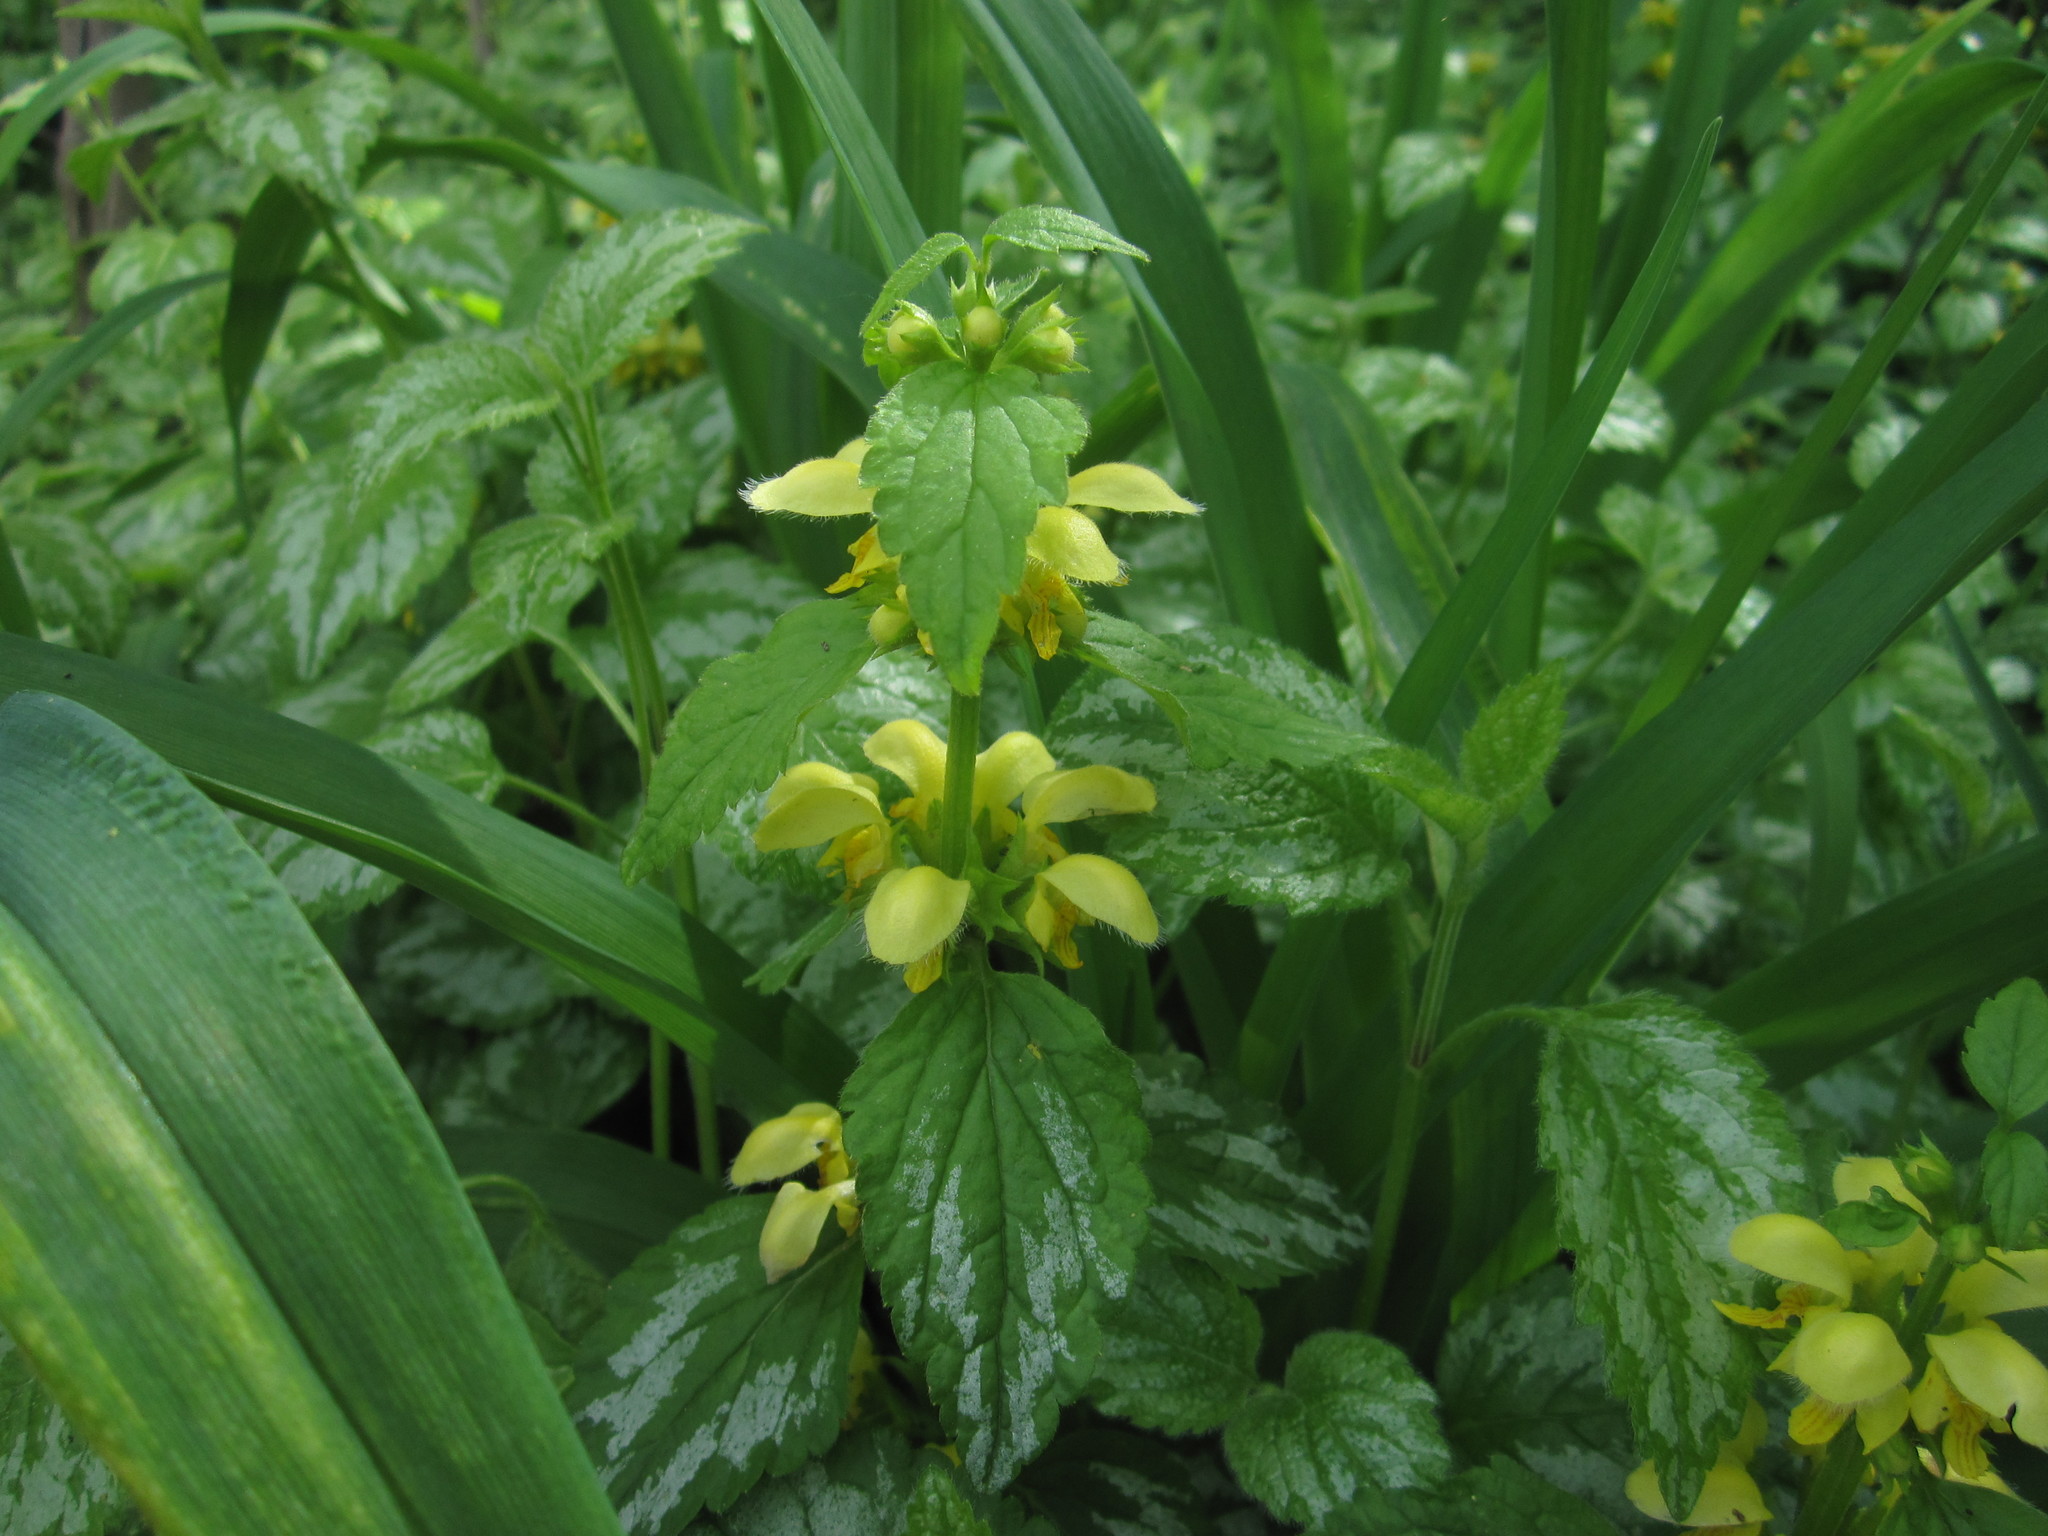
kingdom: Plantae
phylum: Tracheophyta
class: Magnoliopsida
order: Lamiales
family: Lamiaceae
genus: Lamium
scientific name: Lamium galeobdolon
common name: Yellow archangel
